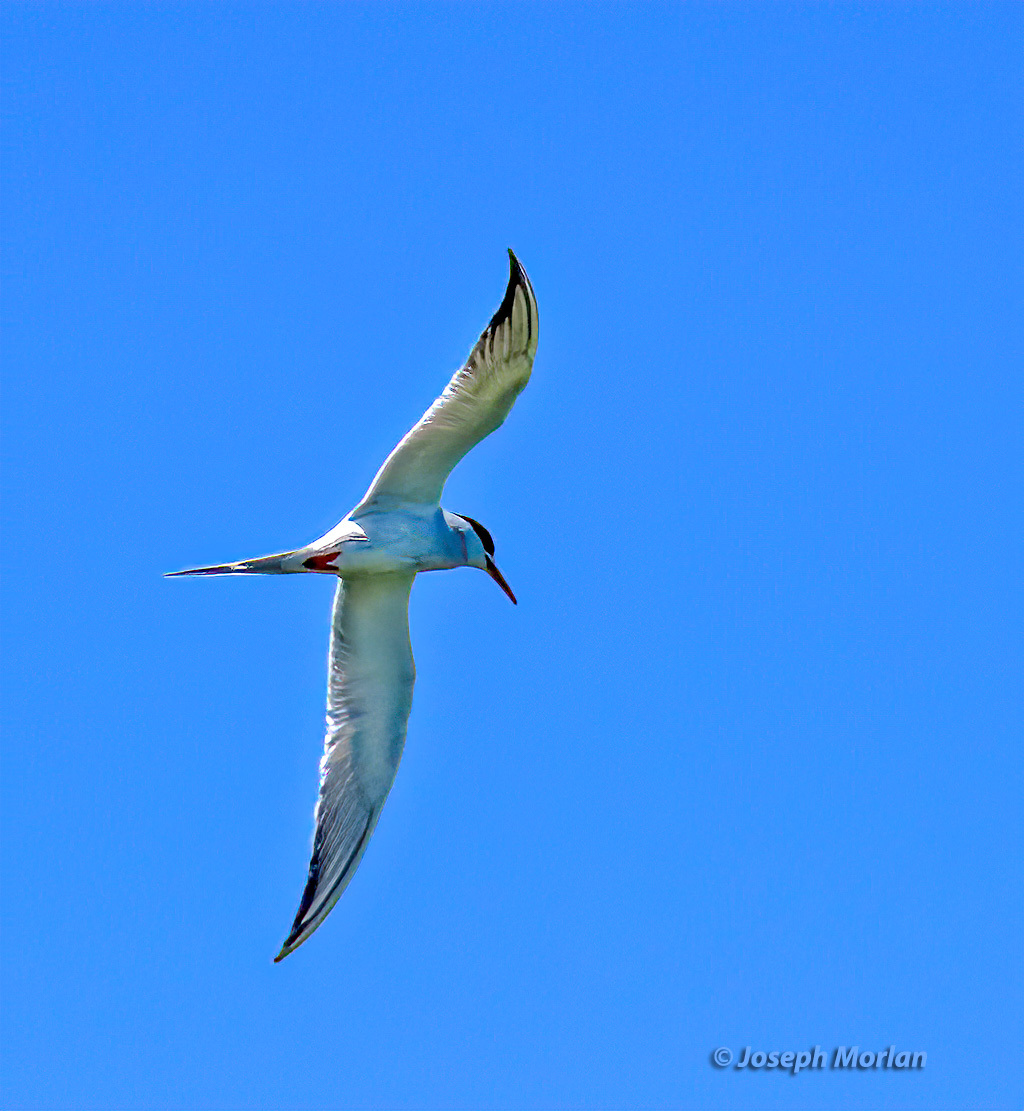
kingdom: Animalia
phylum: Chordata
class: Aves
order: Charadriiformes
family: Laridae
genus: Sterna
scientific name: Sterna forsteri
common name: Forster's tern
